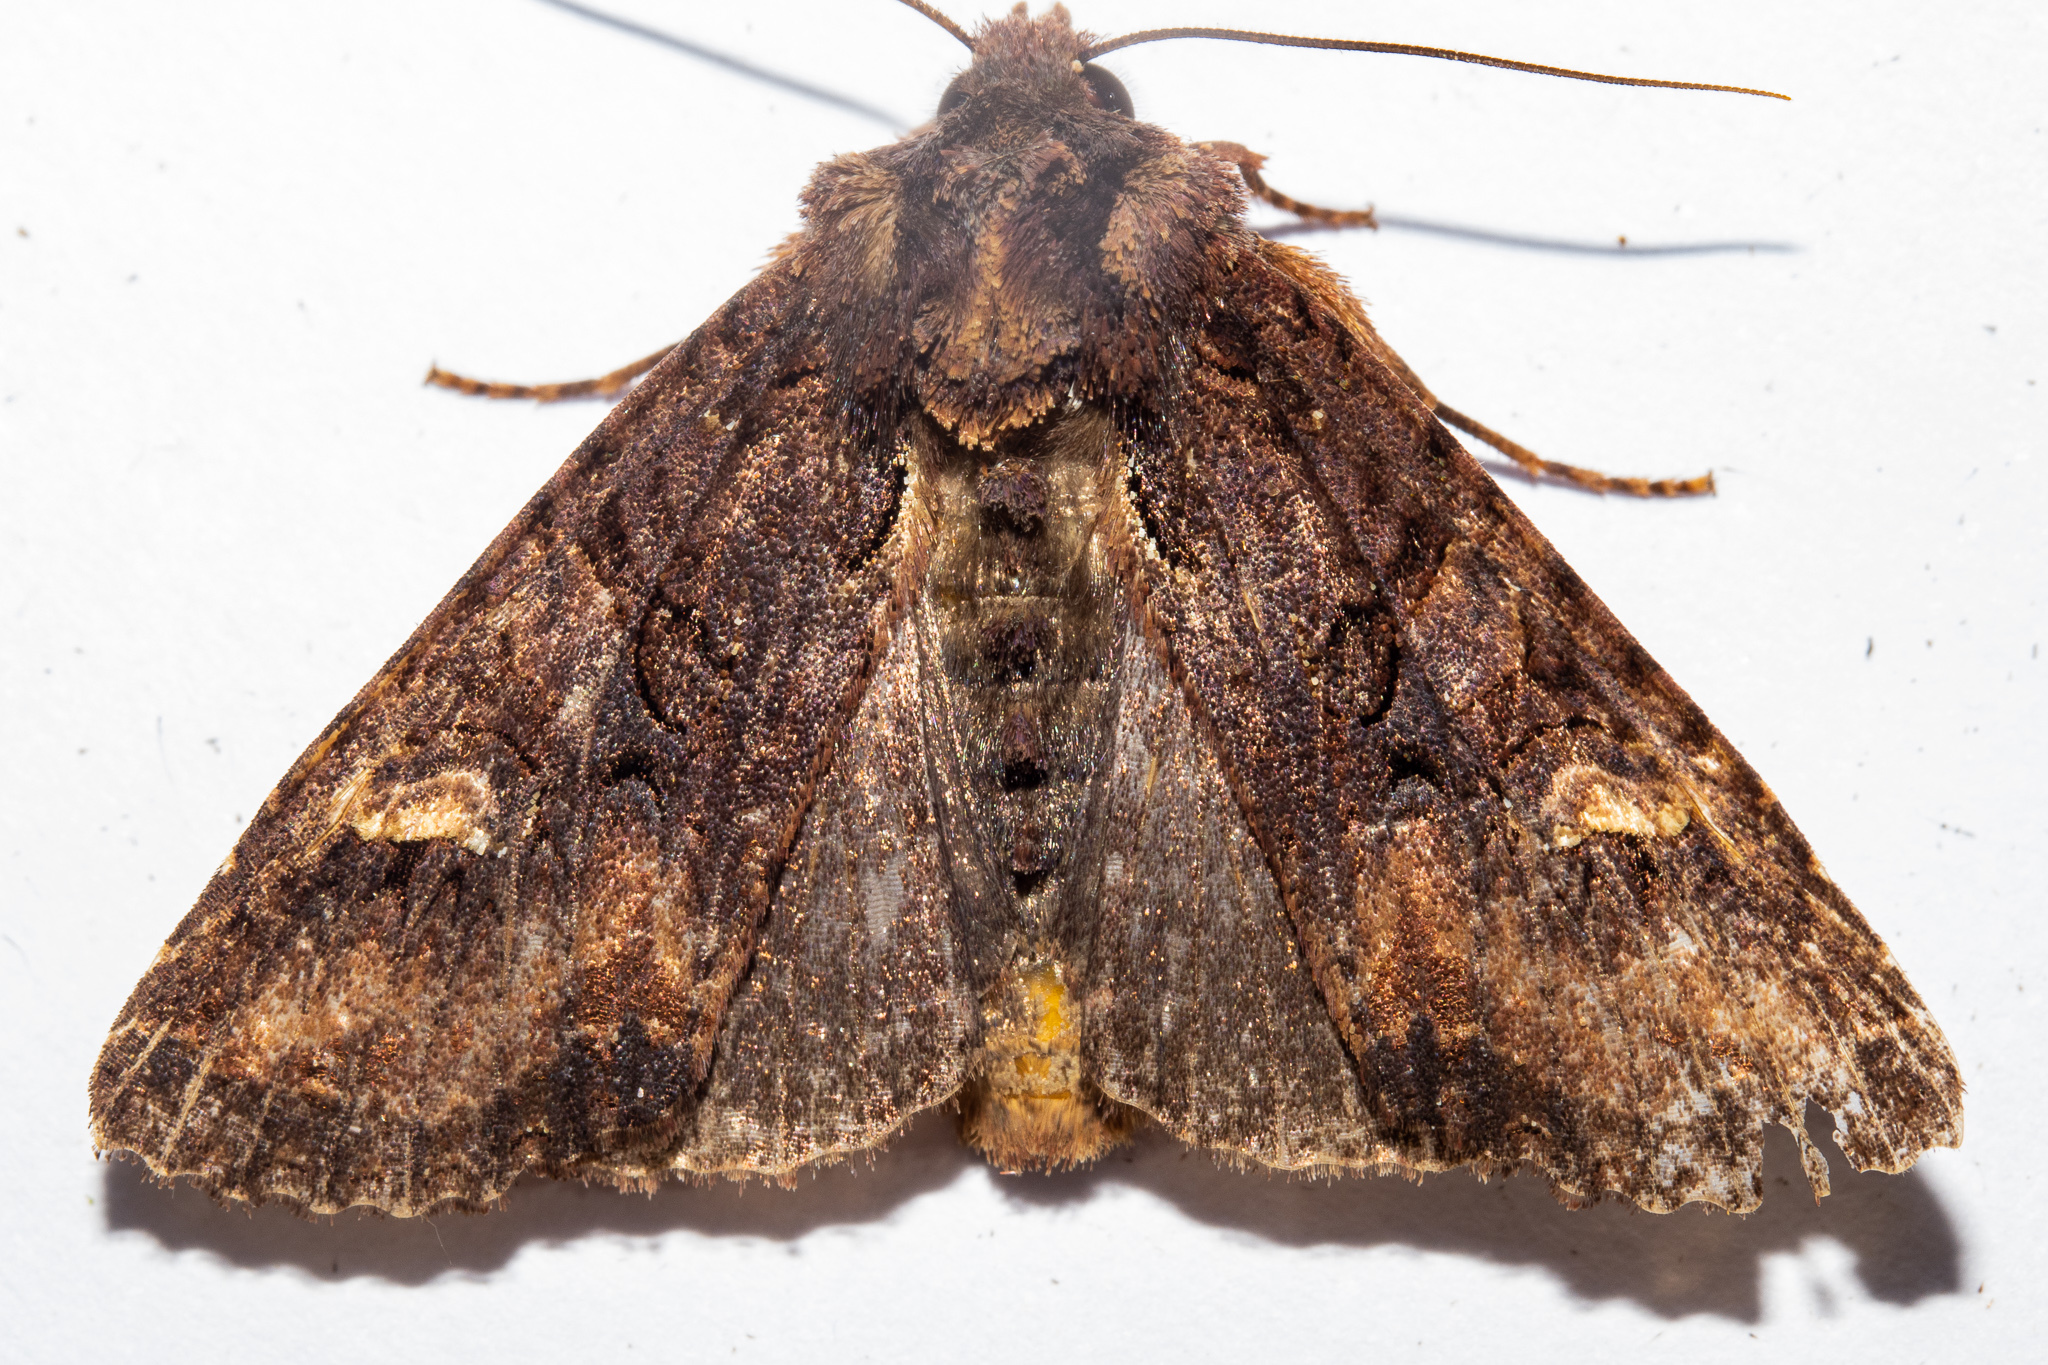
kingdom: Animalia
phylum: Arthropoda
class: Insecta
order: Lepidoptera
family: Noctuidae
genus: Meterana
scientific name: Meterana dotata
